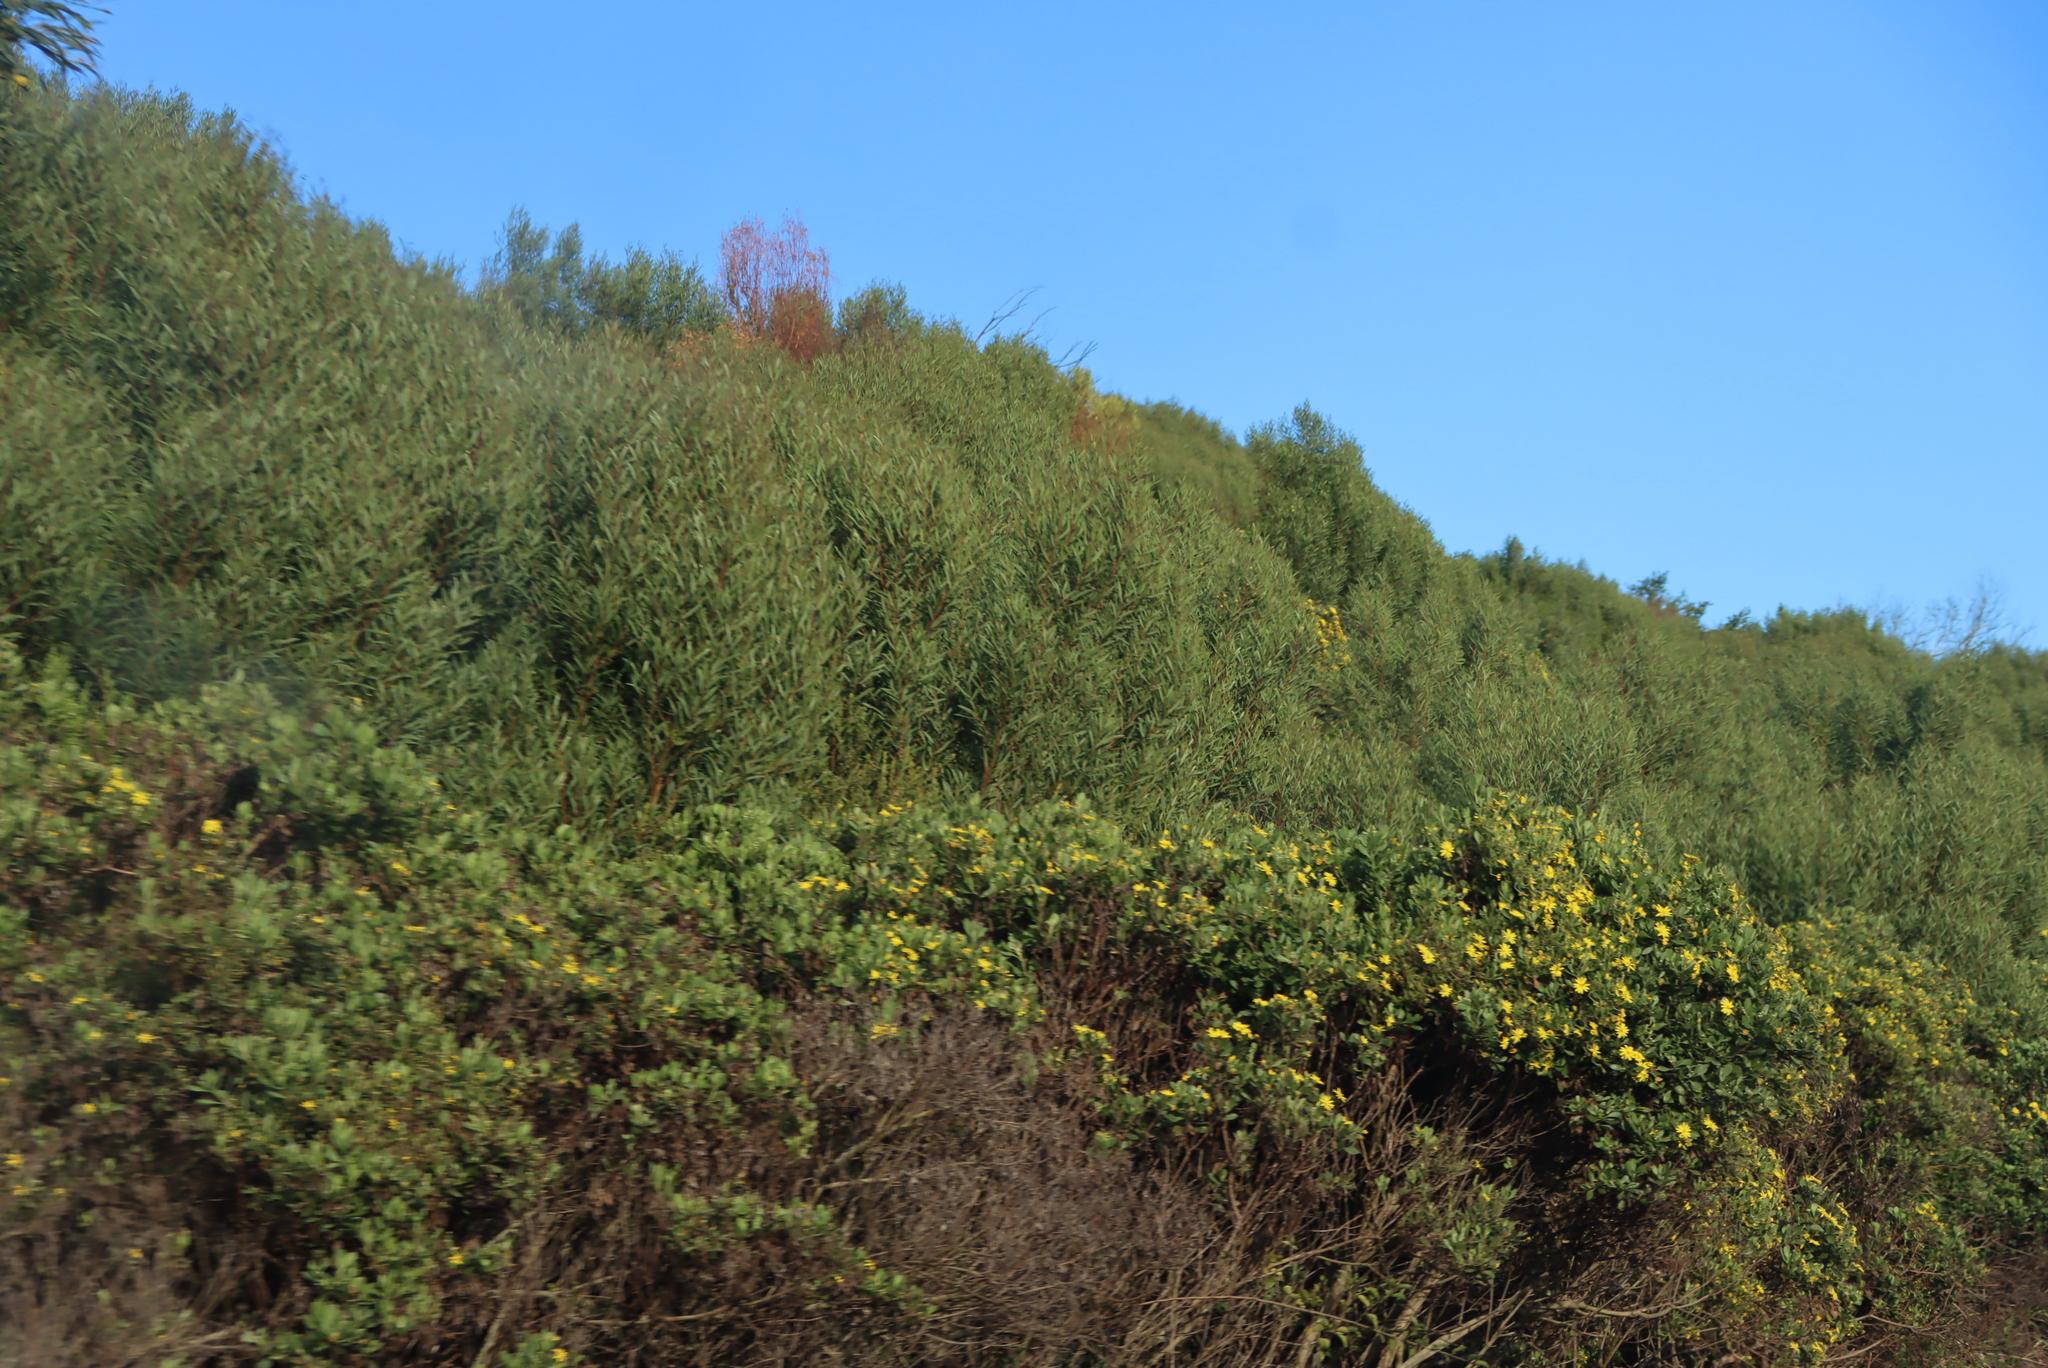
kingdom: Plantae
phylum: Tracheophyta
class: Magnoliopsida
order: Fabales
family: Fabaceae
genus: Acacia
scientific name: Acacia longifolia
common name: Sydney golden wattle
